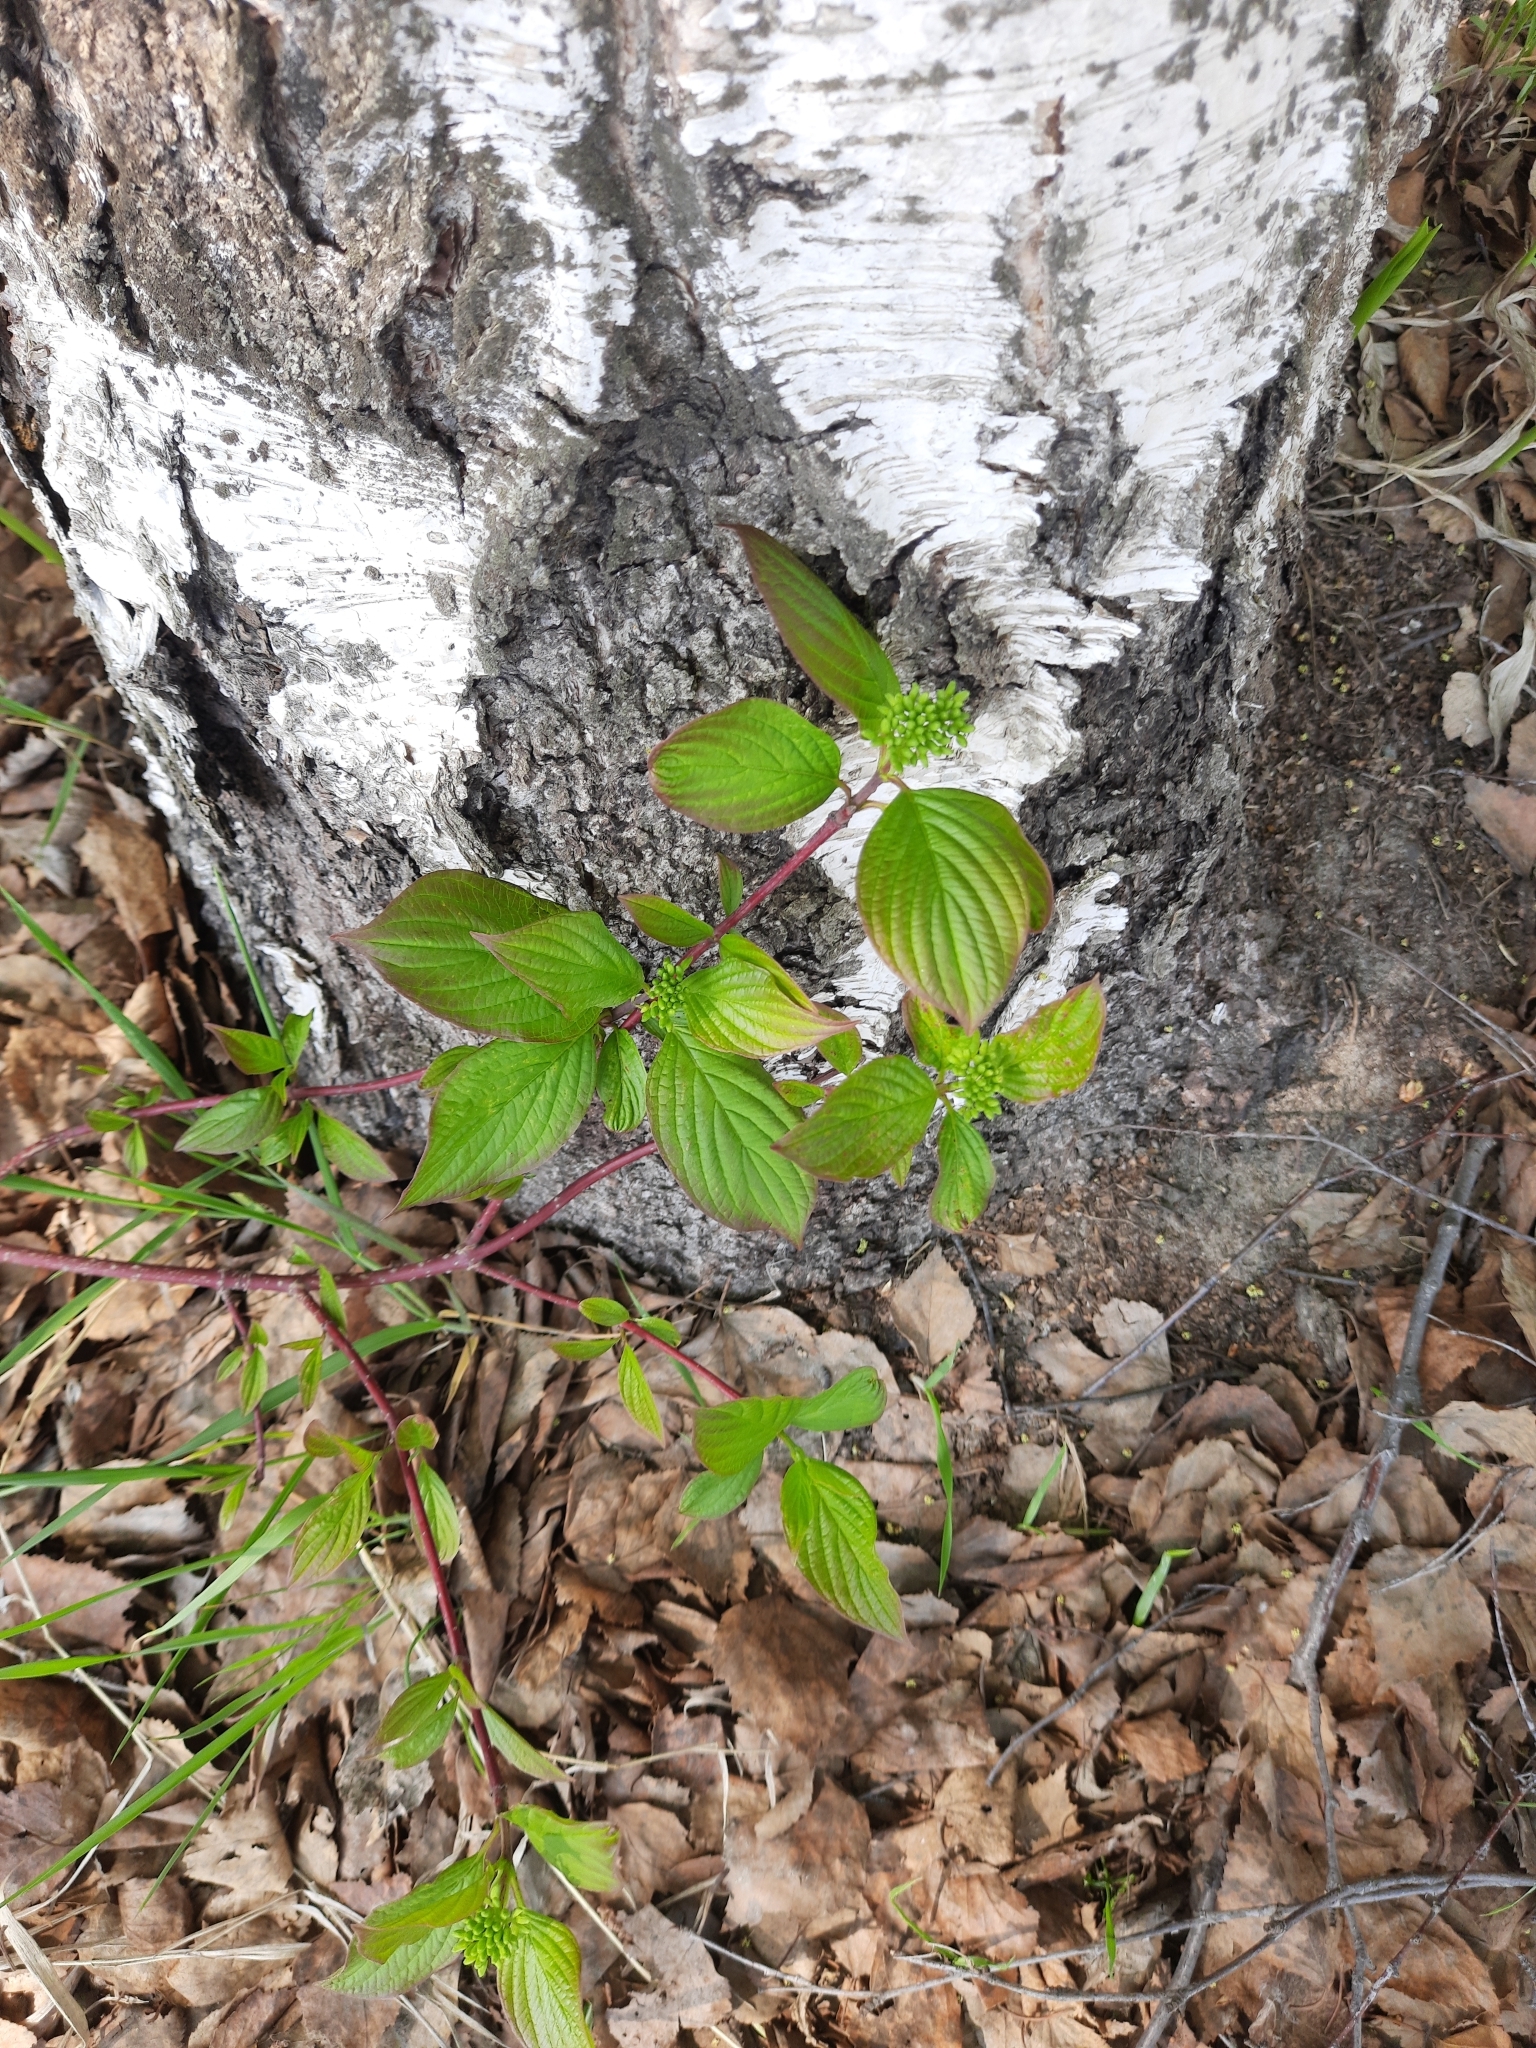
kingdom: Plantae
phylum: Tracheophyta
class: Magnoliopsida
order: Cornales
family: Cornaceae
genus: Cornus
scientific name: Cornus alba
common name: White dogwood
